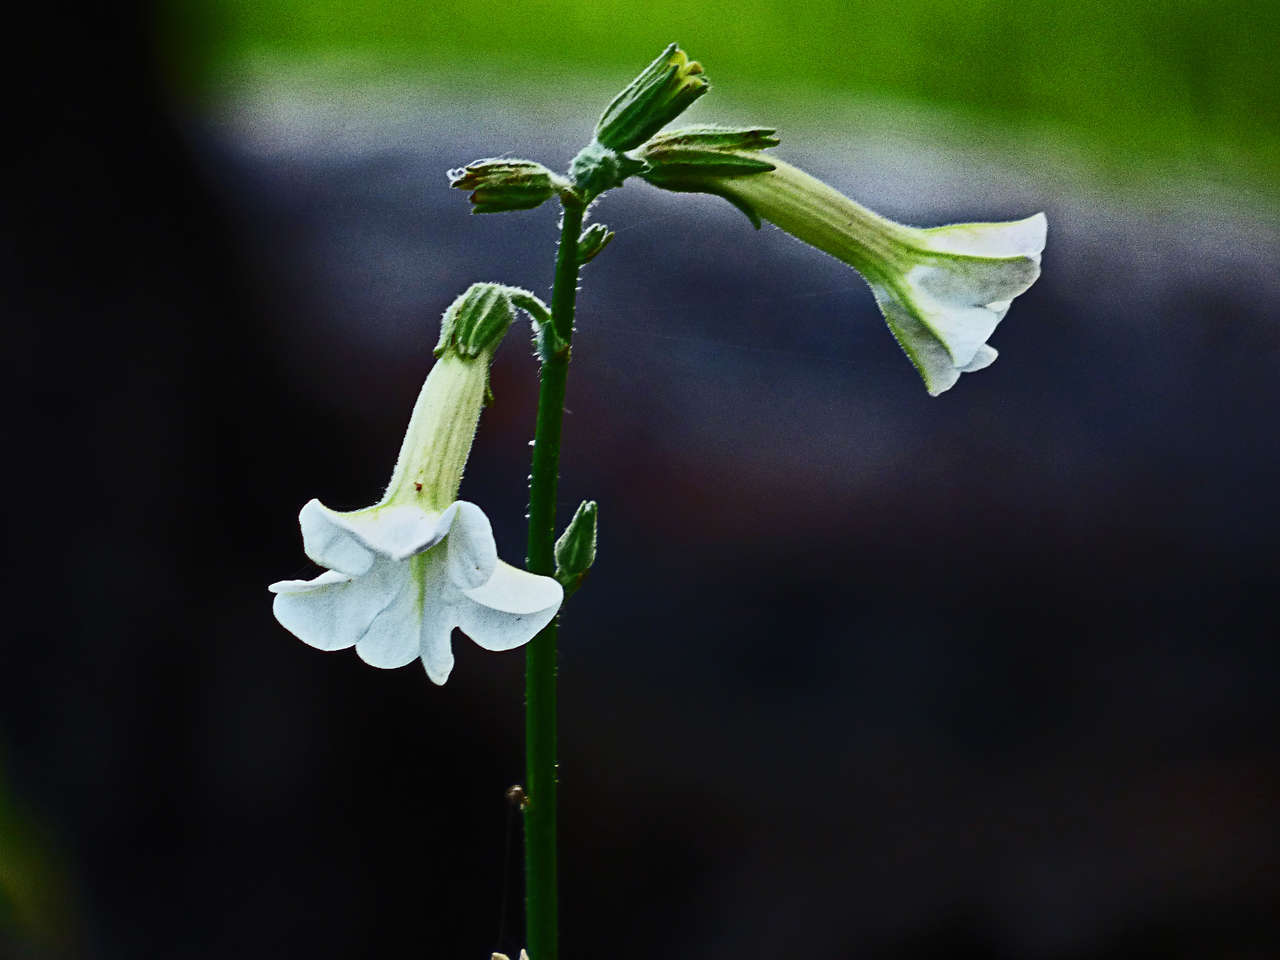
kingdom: Plantae
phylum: Tracheophyta
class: Magnoliopsida
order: Solanales
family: Solanaceae
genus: Nicotiana
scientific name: Nicotiana suaveolens
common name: Australian tobacco
